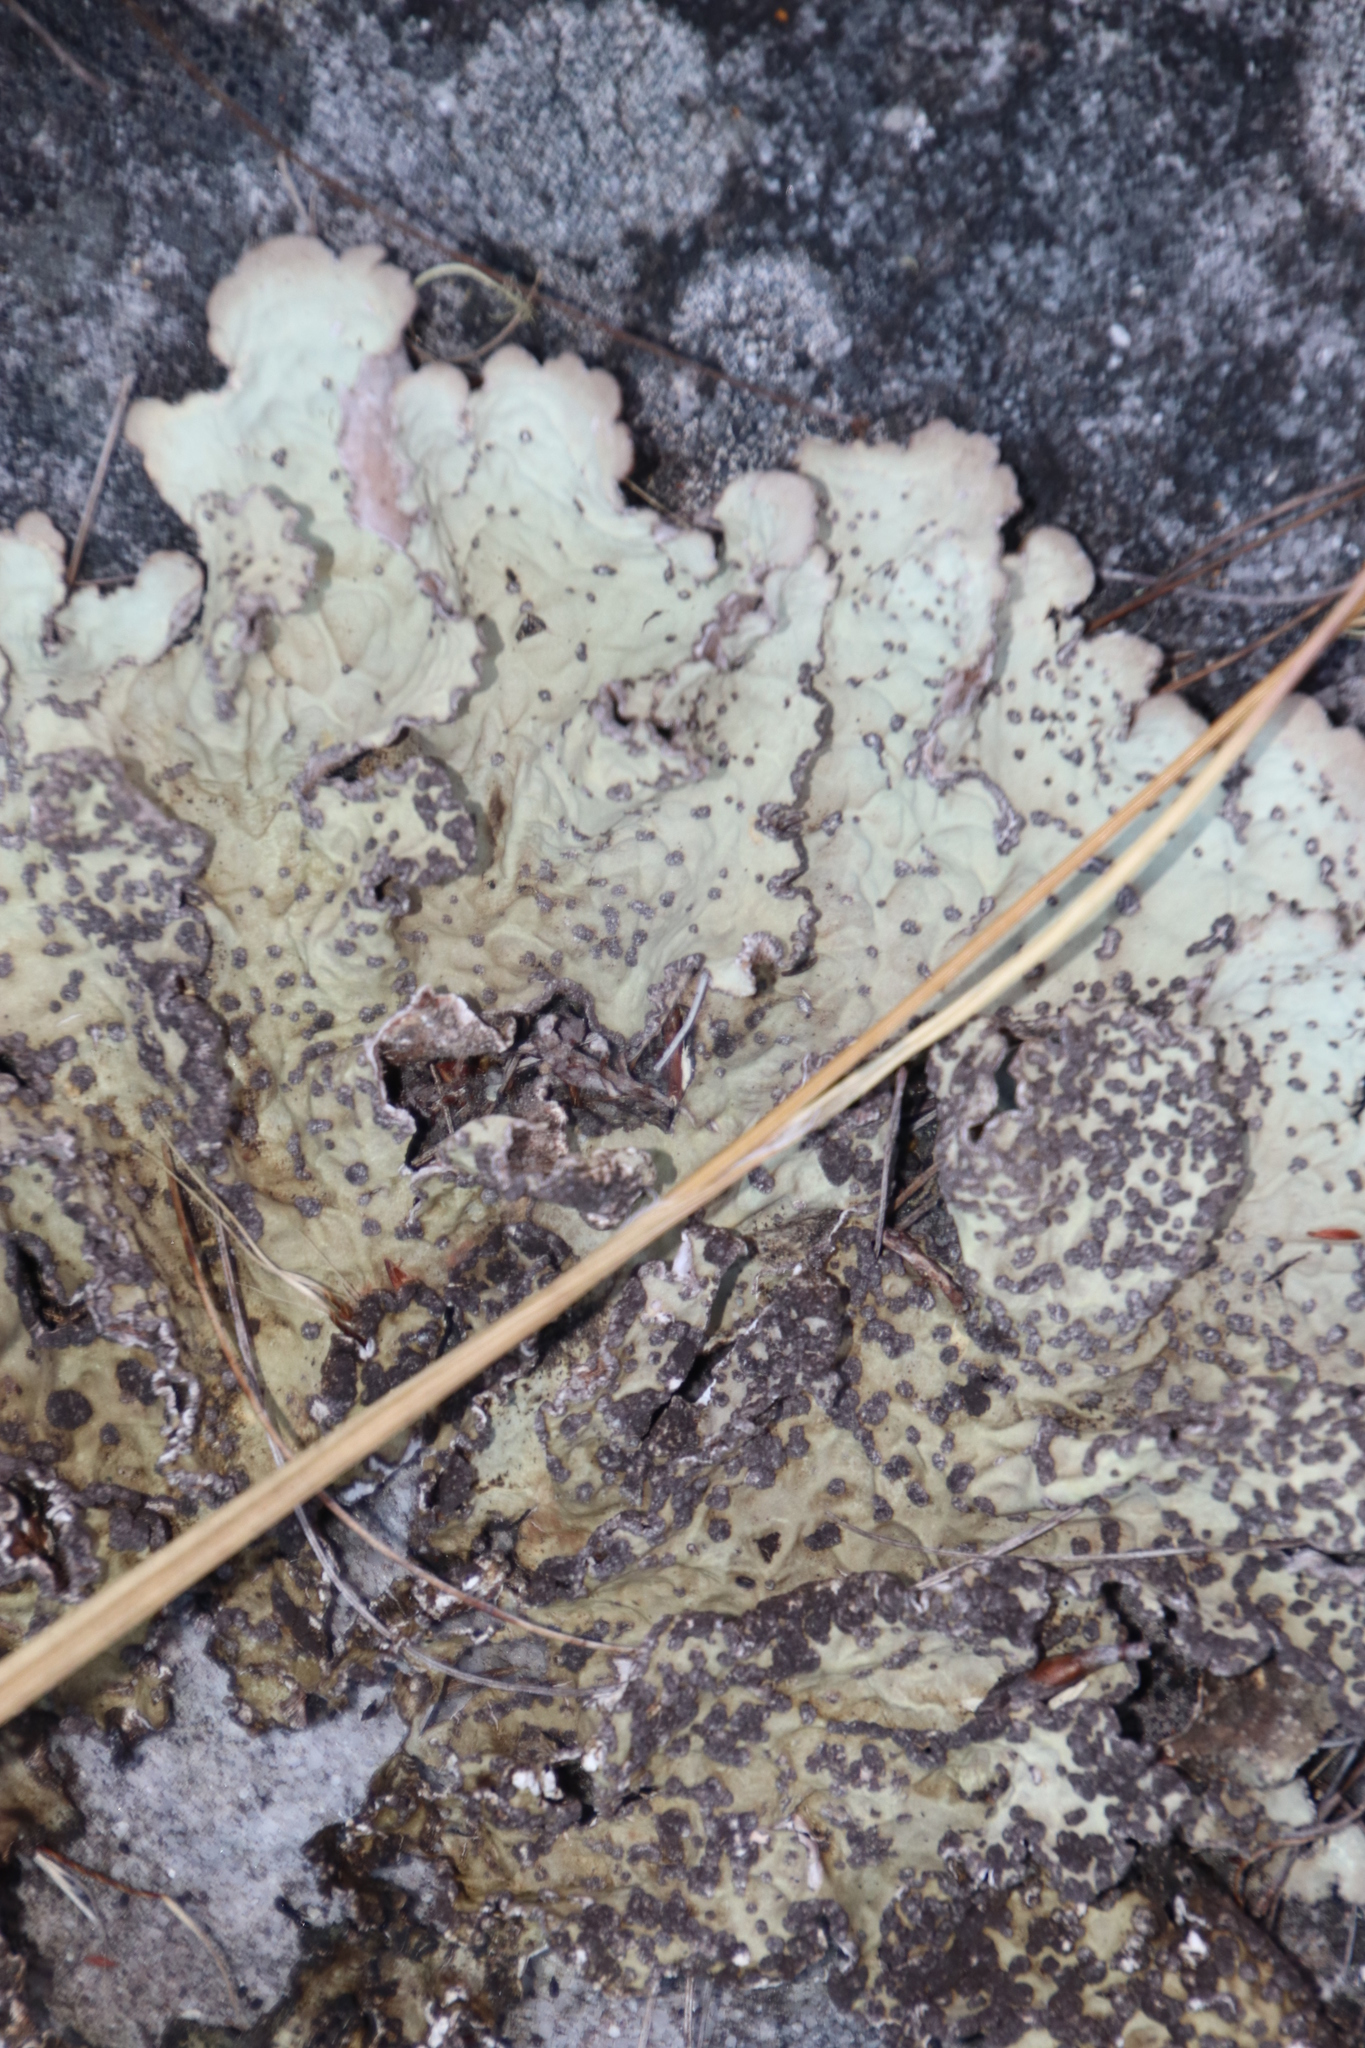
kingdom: Fungi
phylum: Ascomycota
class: Lecanoromycetes
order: Peltigerales
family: Lobariaceae
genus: Lobarina
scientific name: Lobarina scrobiculata
